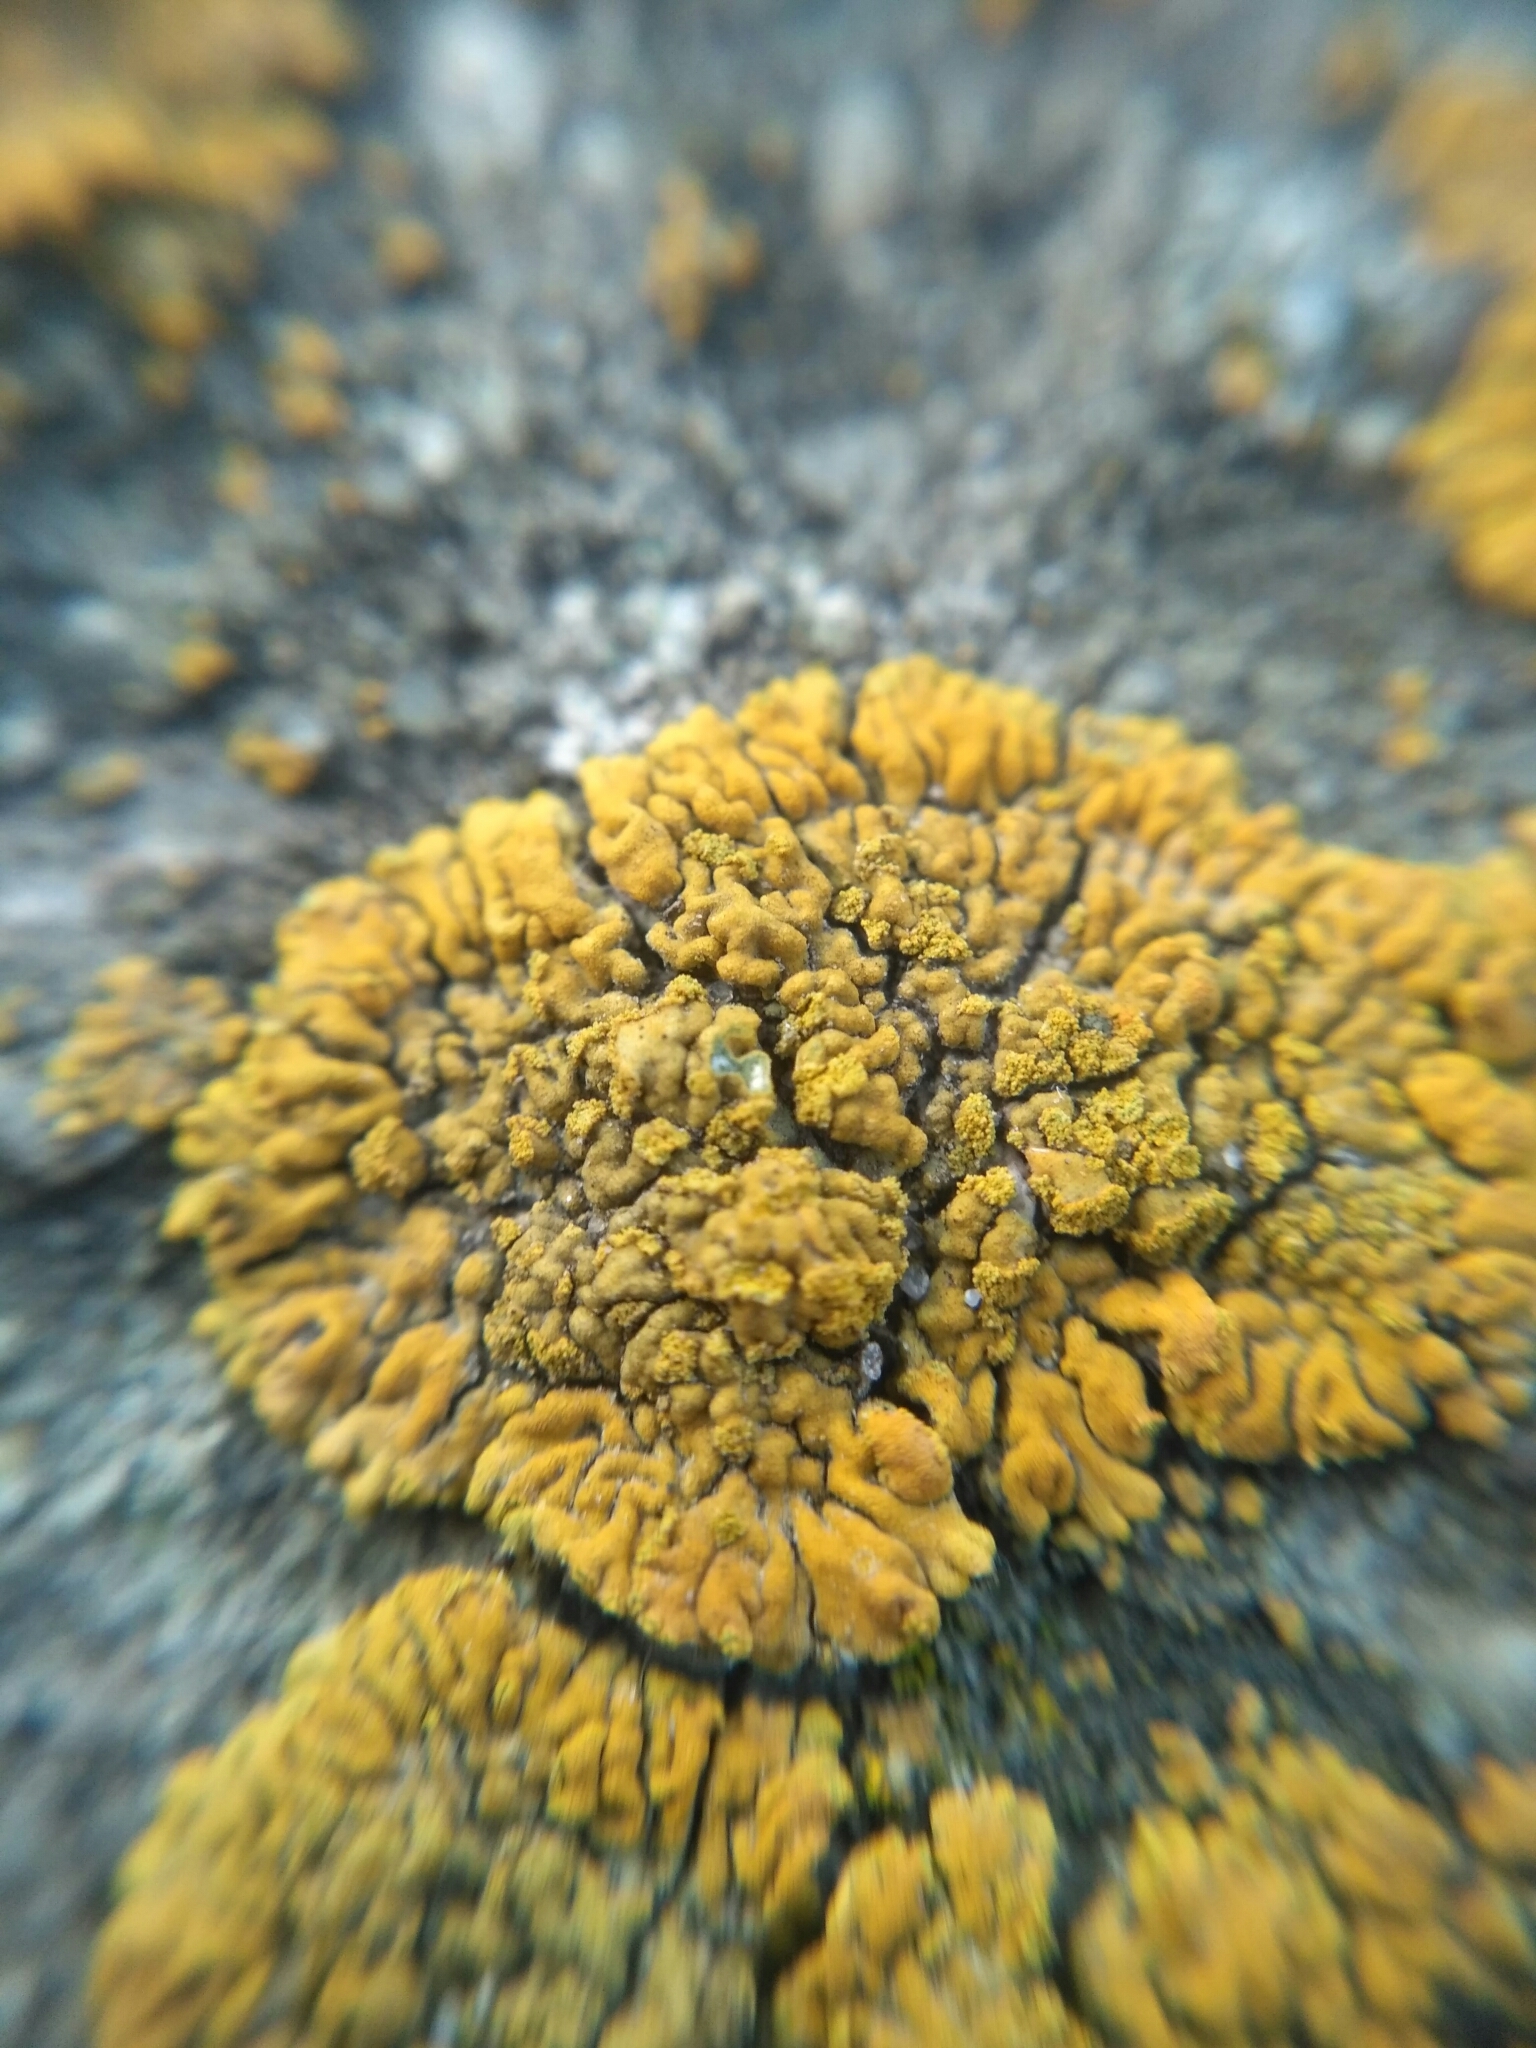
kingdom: Fungi
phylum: Ascomycota
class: Lecanoromycetes
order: Teloschistales
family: Teloschistaceae
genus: Calogaya
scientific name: Calogaya decipiens
